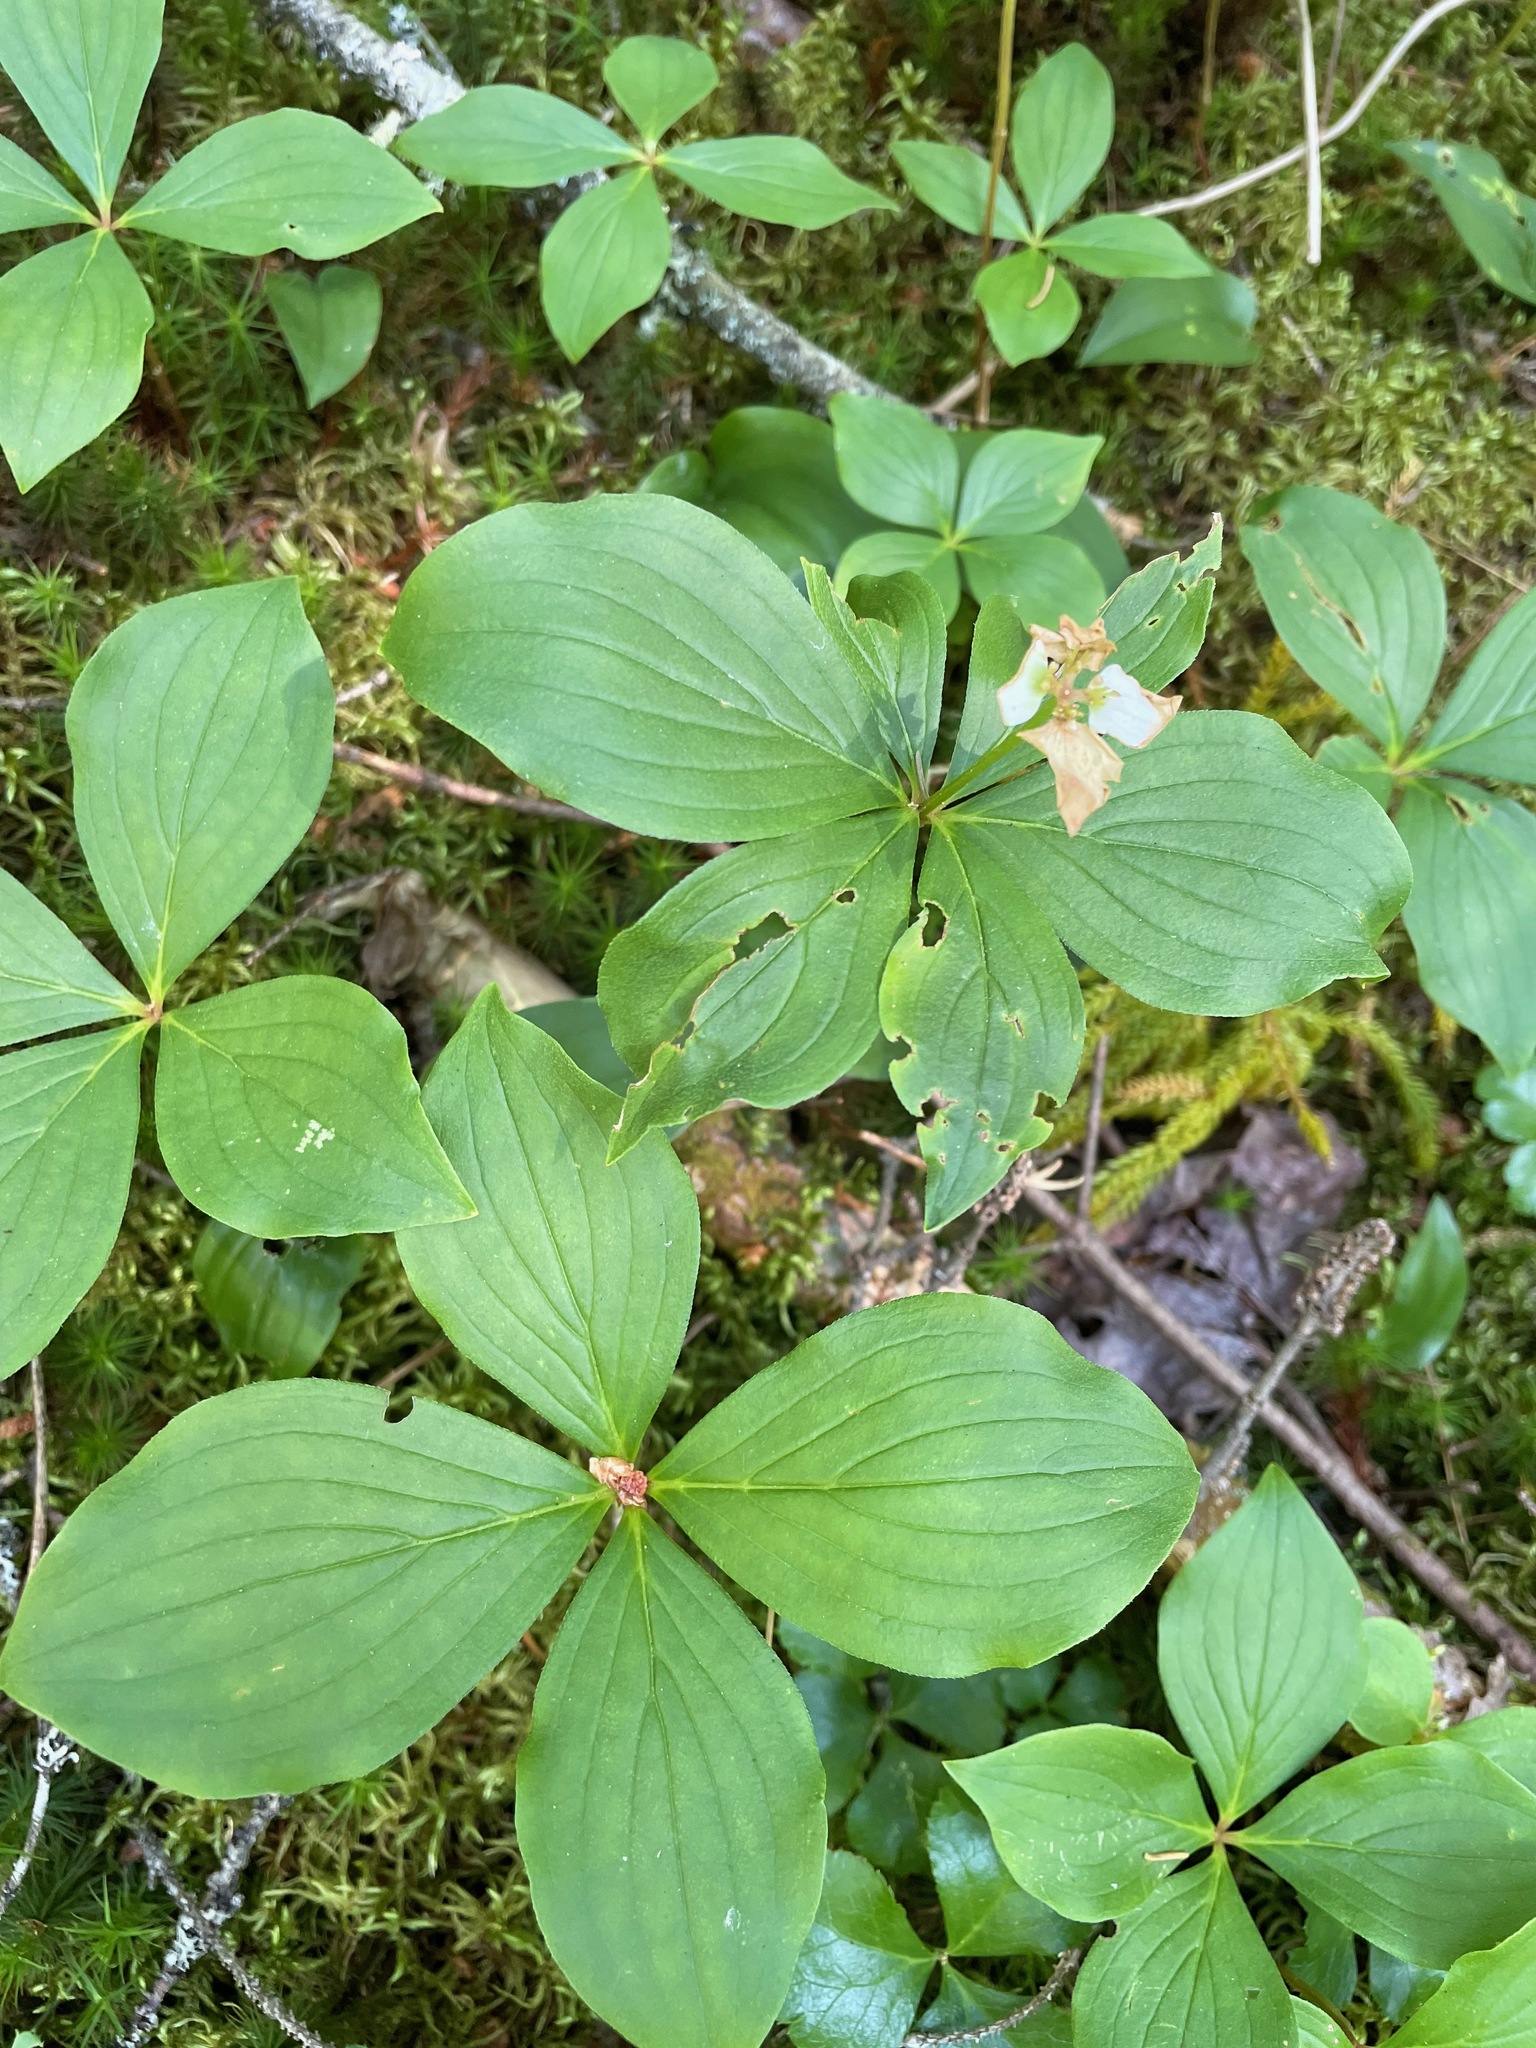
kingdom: Plantae
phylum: Tracheophyta
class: Magnoliopsida
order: Cornales
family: Cornaceae
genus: Cornus
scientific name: Cornus canadensis
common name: Creeping dogwood
